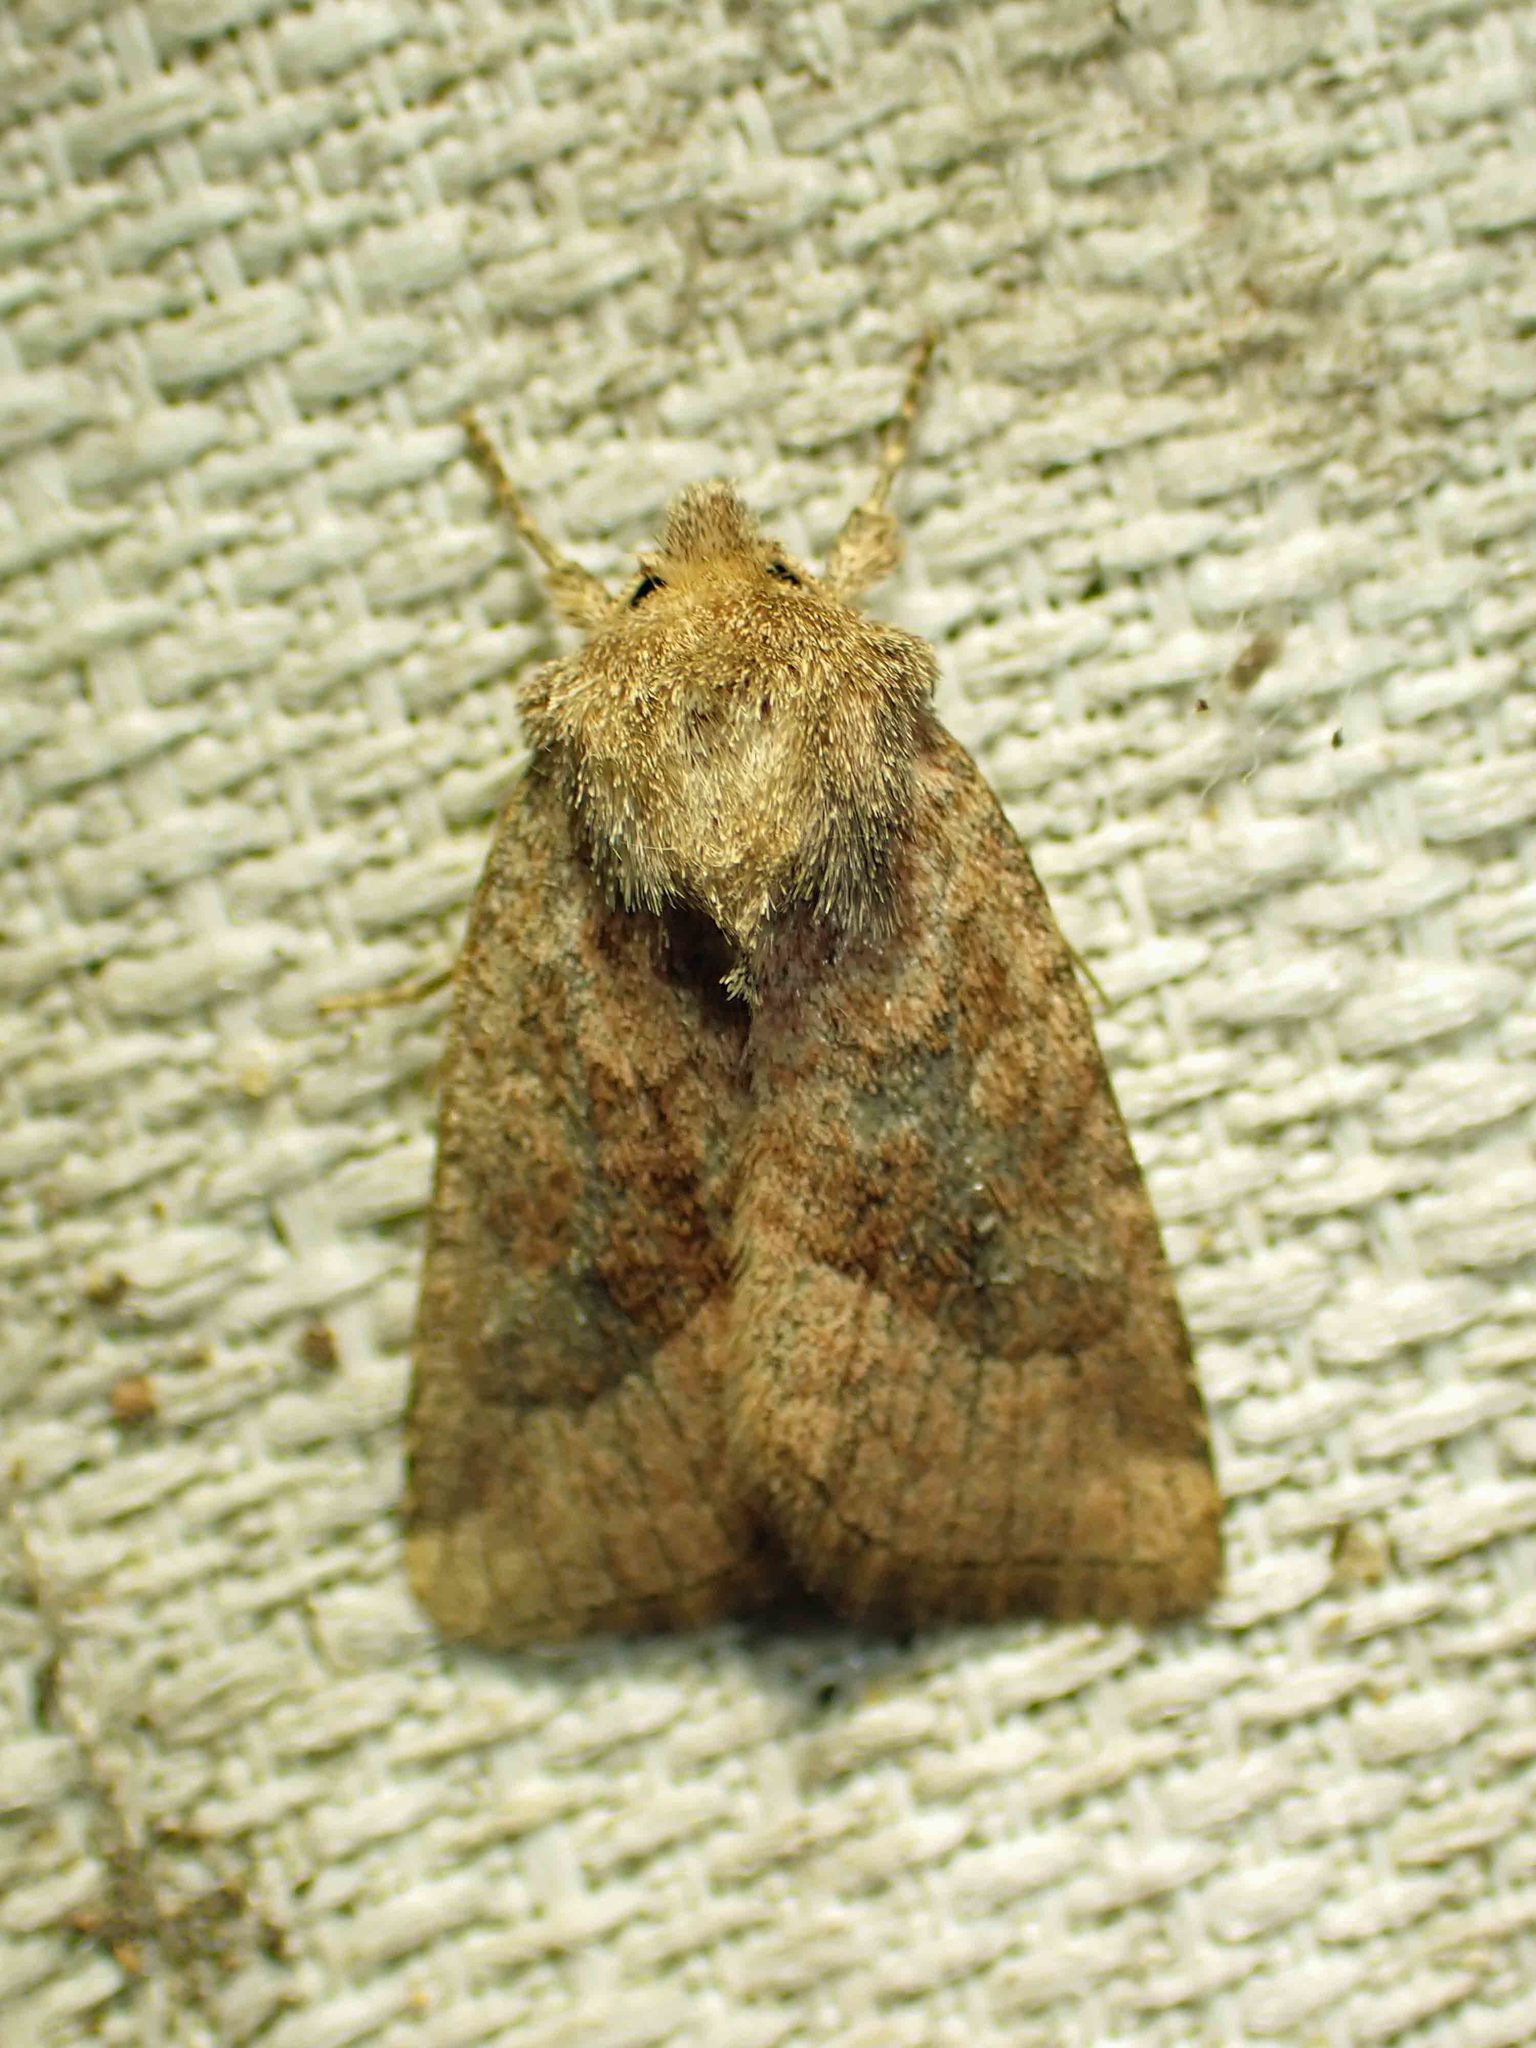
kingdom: Animalia
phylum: Arthropoda
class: Insecta
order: Lepidoptera
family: Noctuidae
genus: Lacinipolia
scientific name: Lacinipolia lorea
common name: Bridled arches moth
